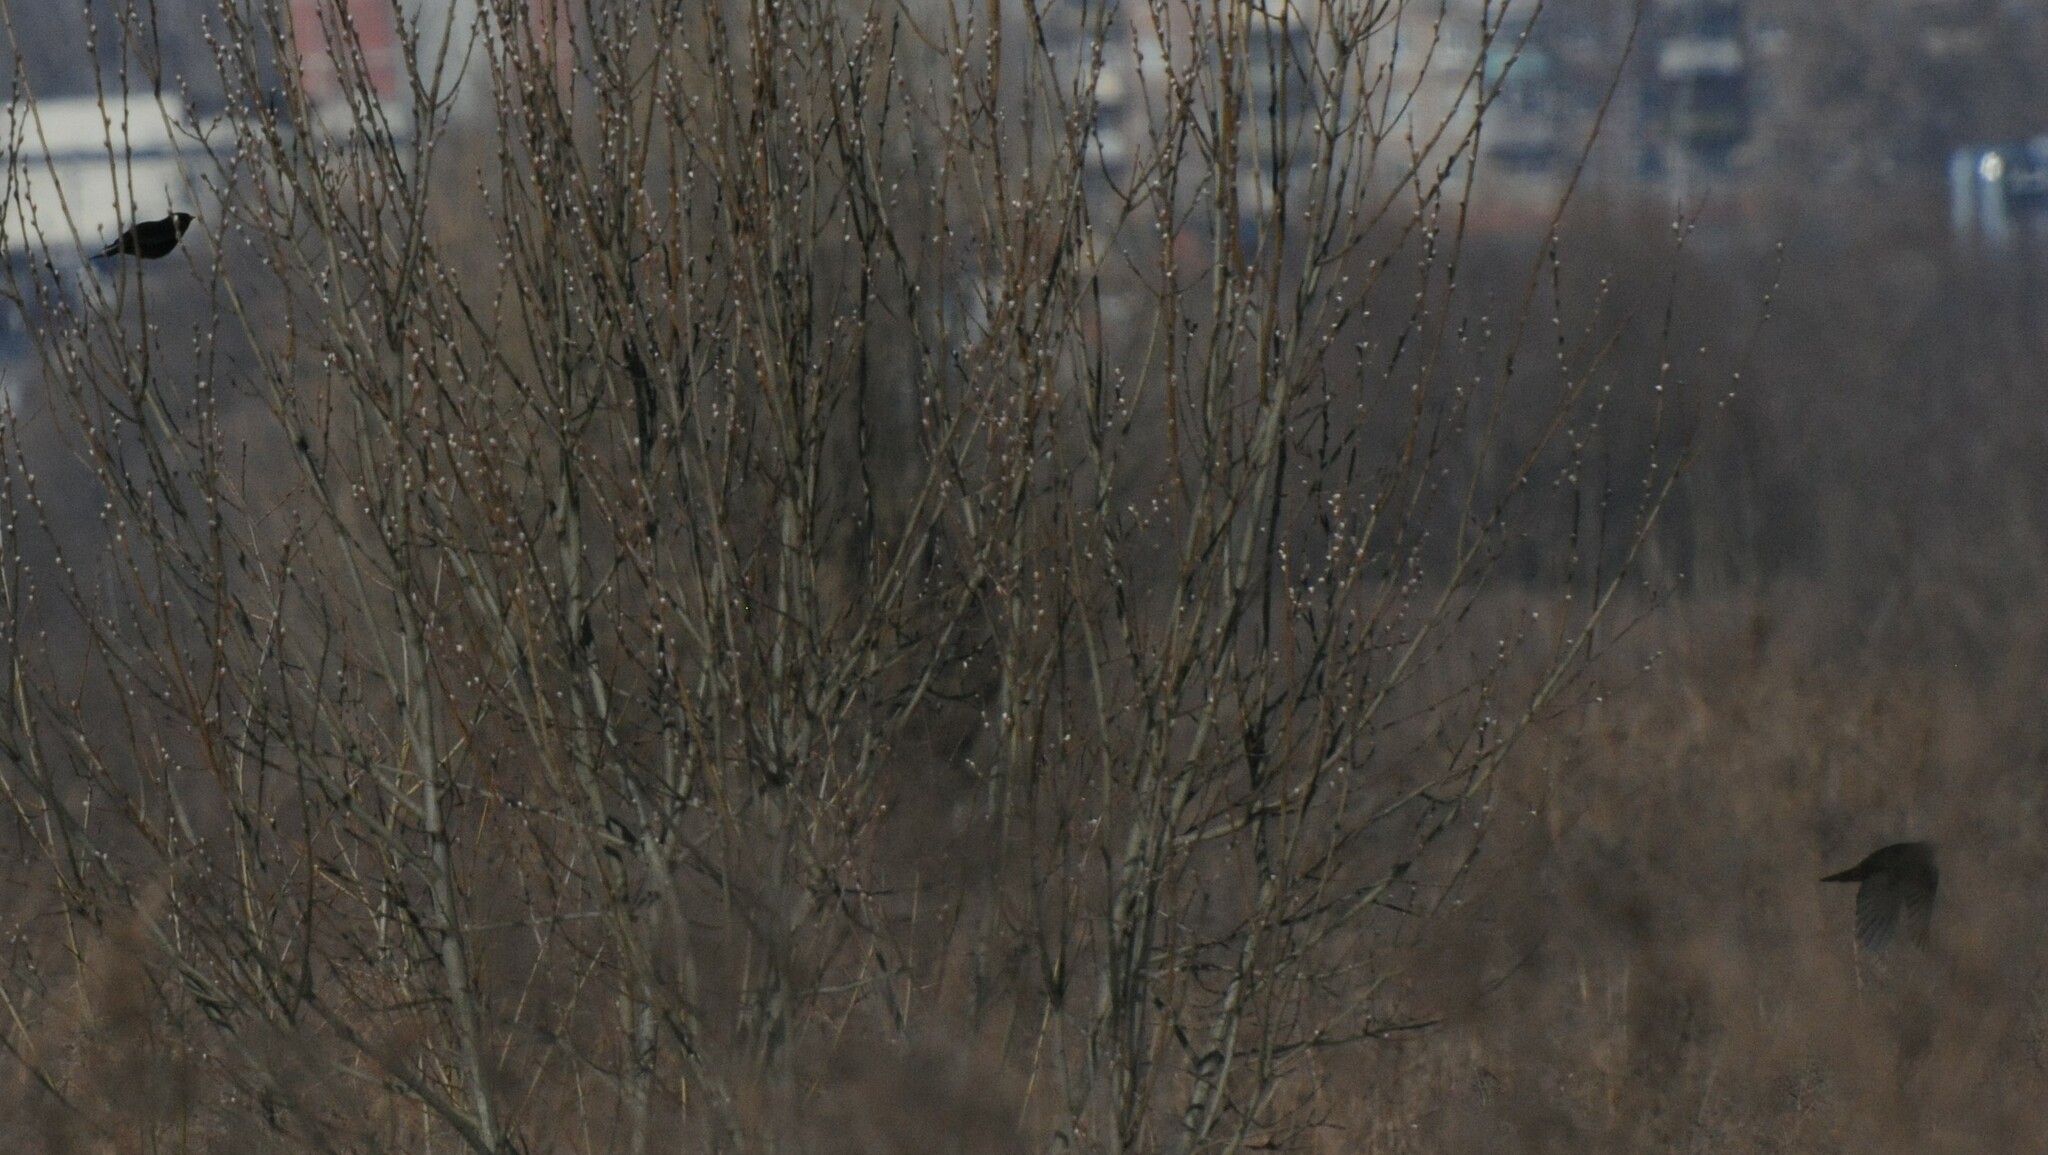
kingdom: Animalia
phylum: Chordata
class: Aves
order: Passeriformes
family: Turdidae
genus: Turdus
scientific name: Turdus merula
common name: Common blackbird
